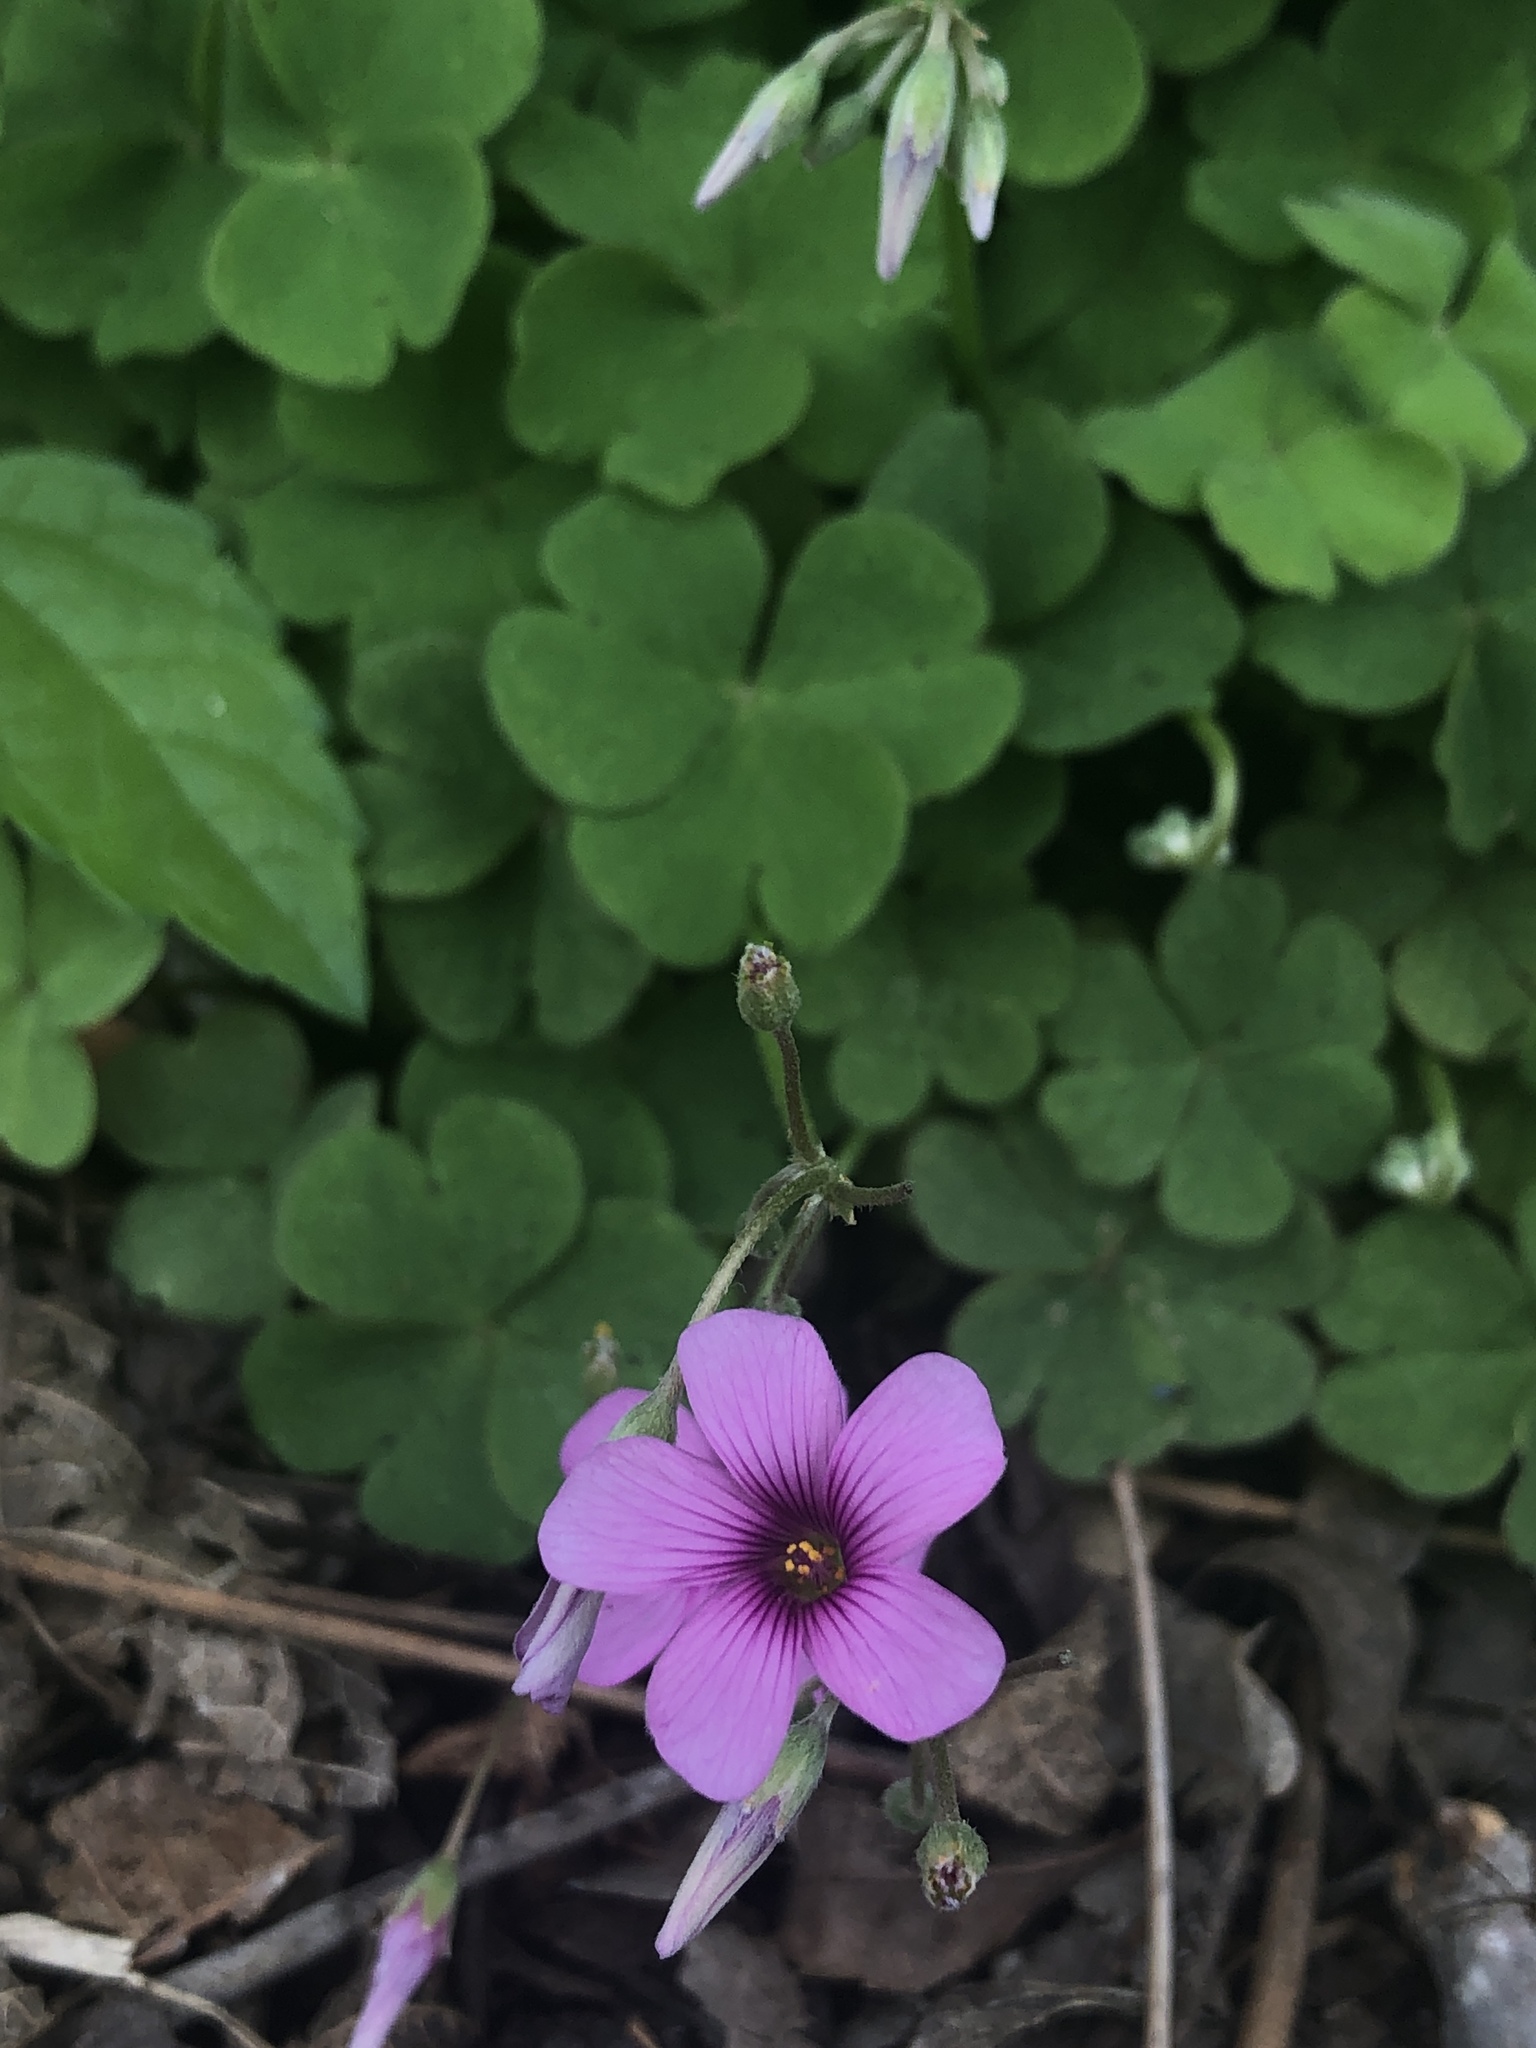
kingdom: Plantae
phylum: Tracheophyta
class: Magnoliopsida
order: Oxalidales
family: Oxalidaceae
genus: Oxalis
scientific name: Oxalis articulata
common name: Pink-sorrel
